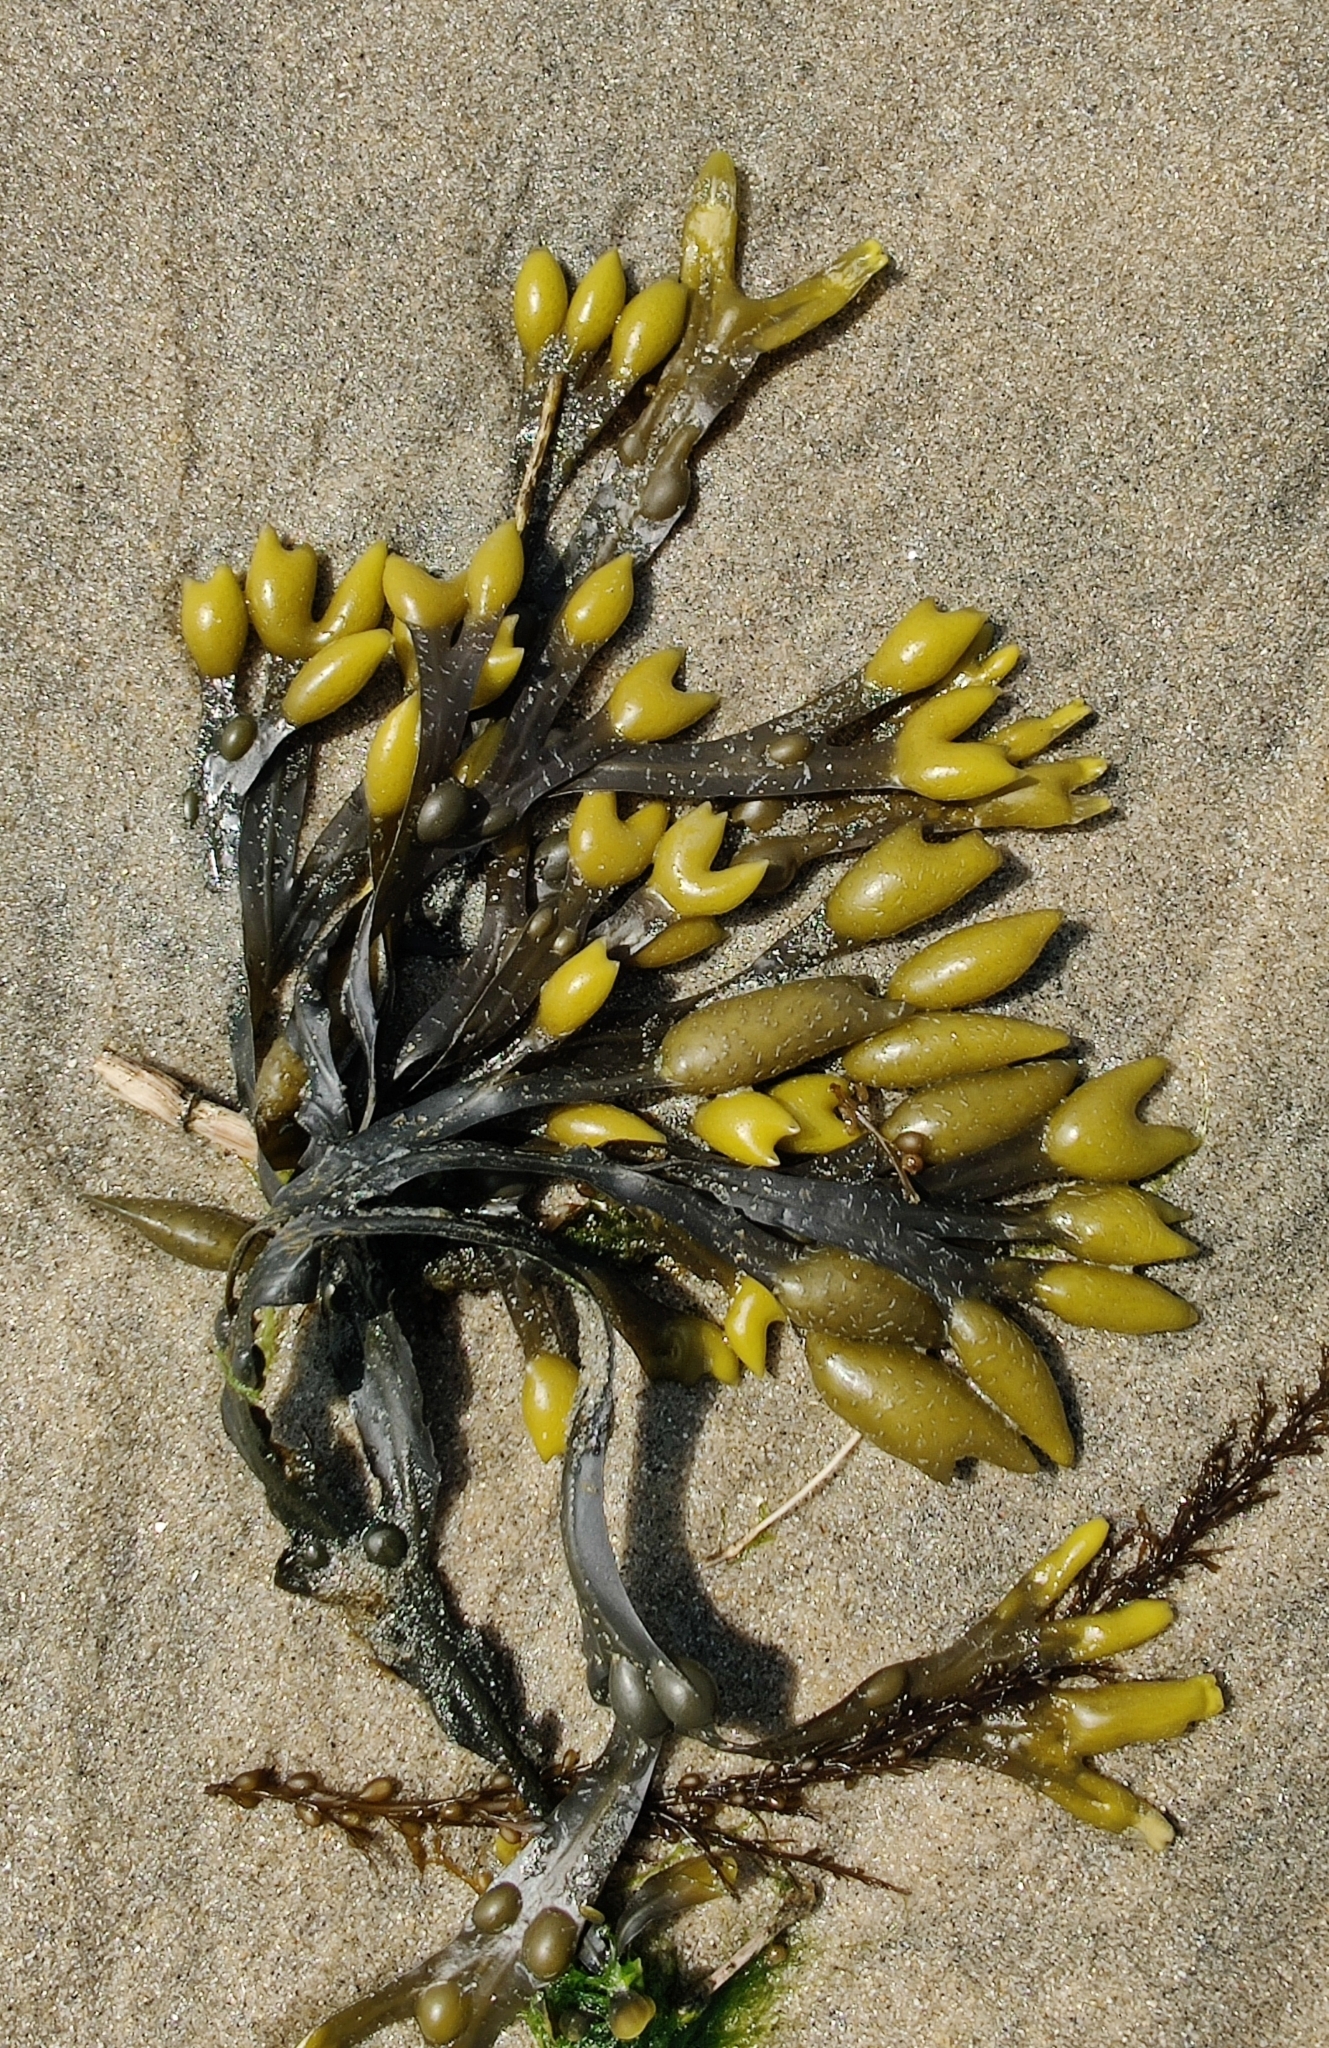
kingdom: Chromista
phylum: Ochrophyta
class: Phaeophyceae
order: Fucales
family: Fucaceae
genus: Fucus
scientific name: Fucus vesiculosus
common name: Bladder wrack
